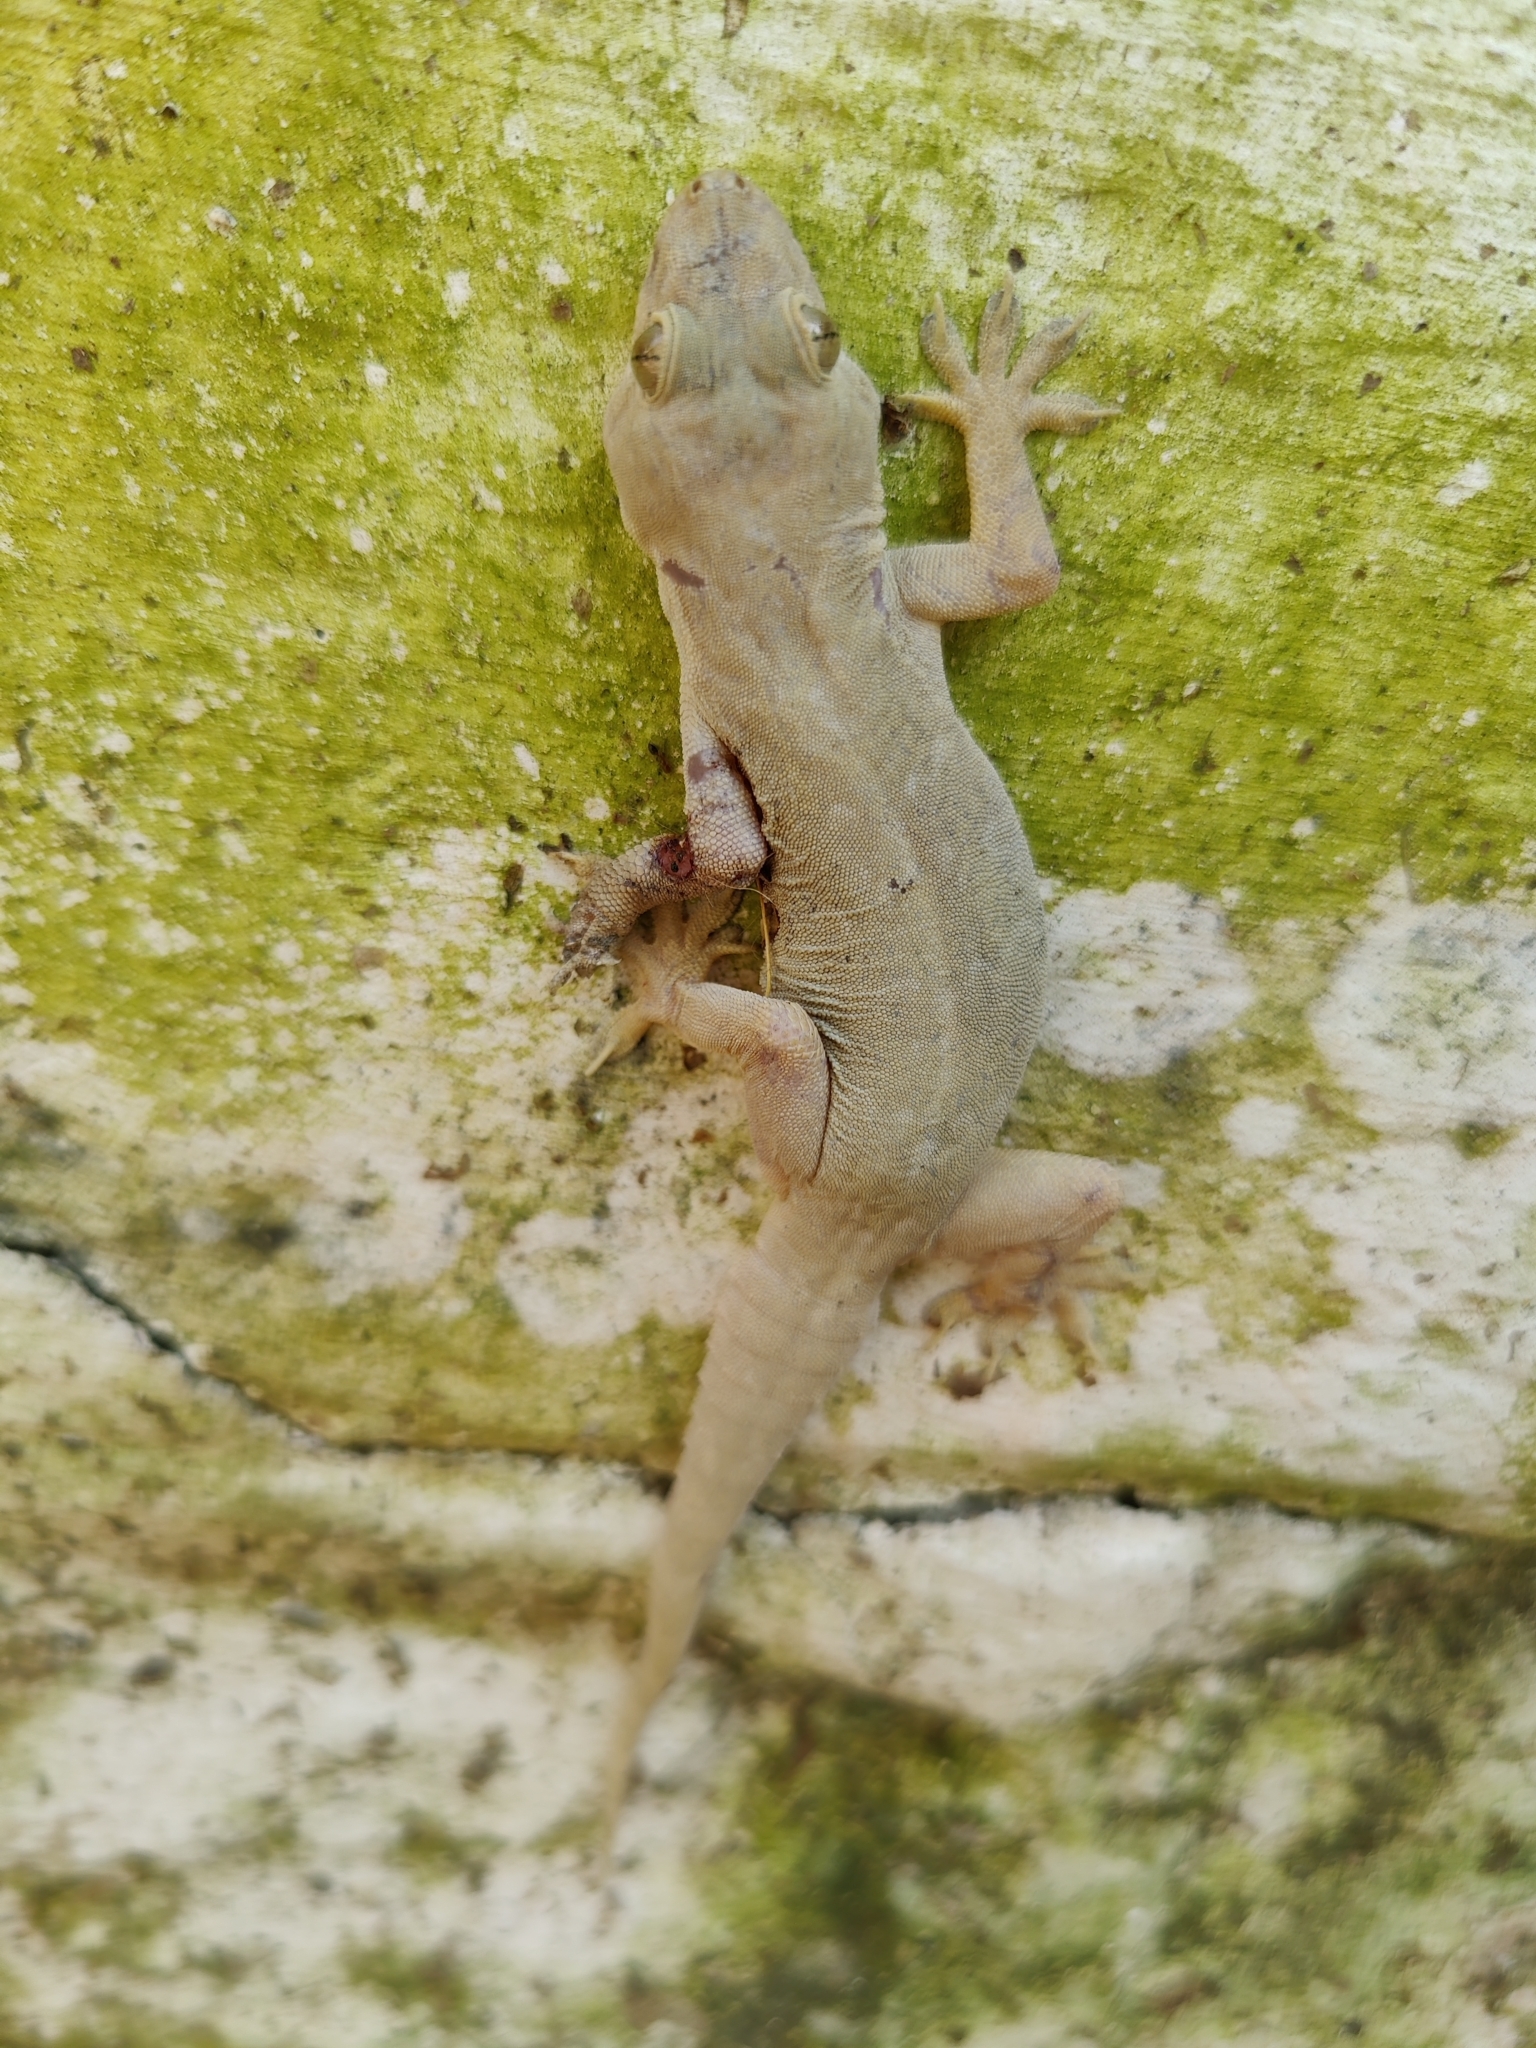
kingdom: Animalia
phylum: Chordata
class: Squamata
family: Gekkonidae
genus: Hemidactylus
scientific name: Hemidactylus flaviviridis
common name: Northern house gecko
